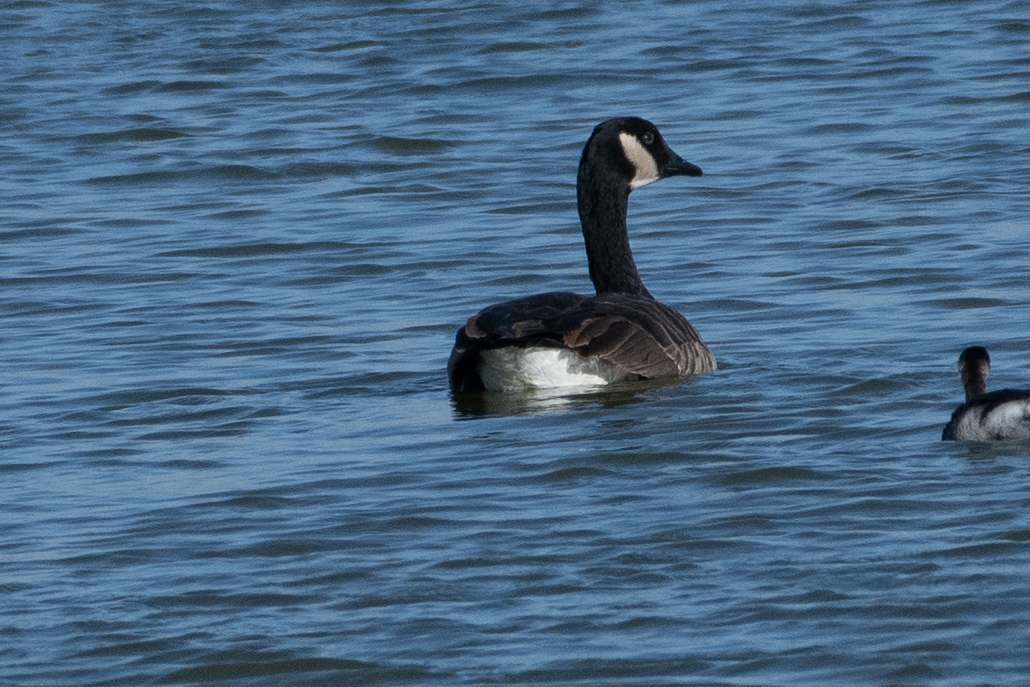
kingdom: Animalia
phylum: Chordata
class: Aves
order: Anseriformes
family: Anatidae
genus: Branta
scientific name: Branta canadensis
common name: Canada goose
